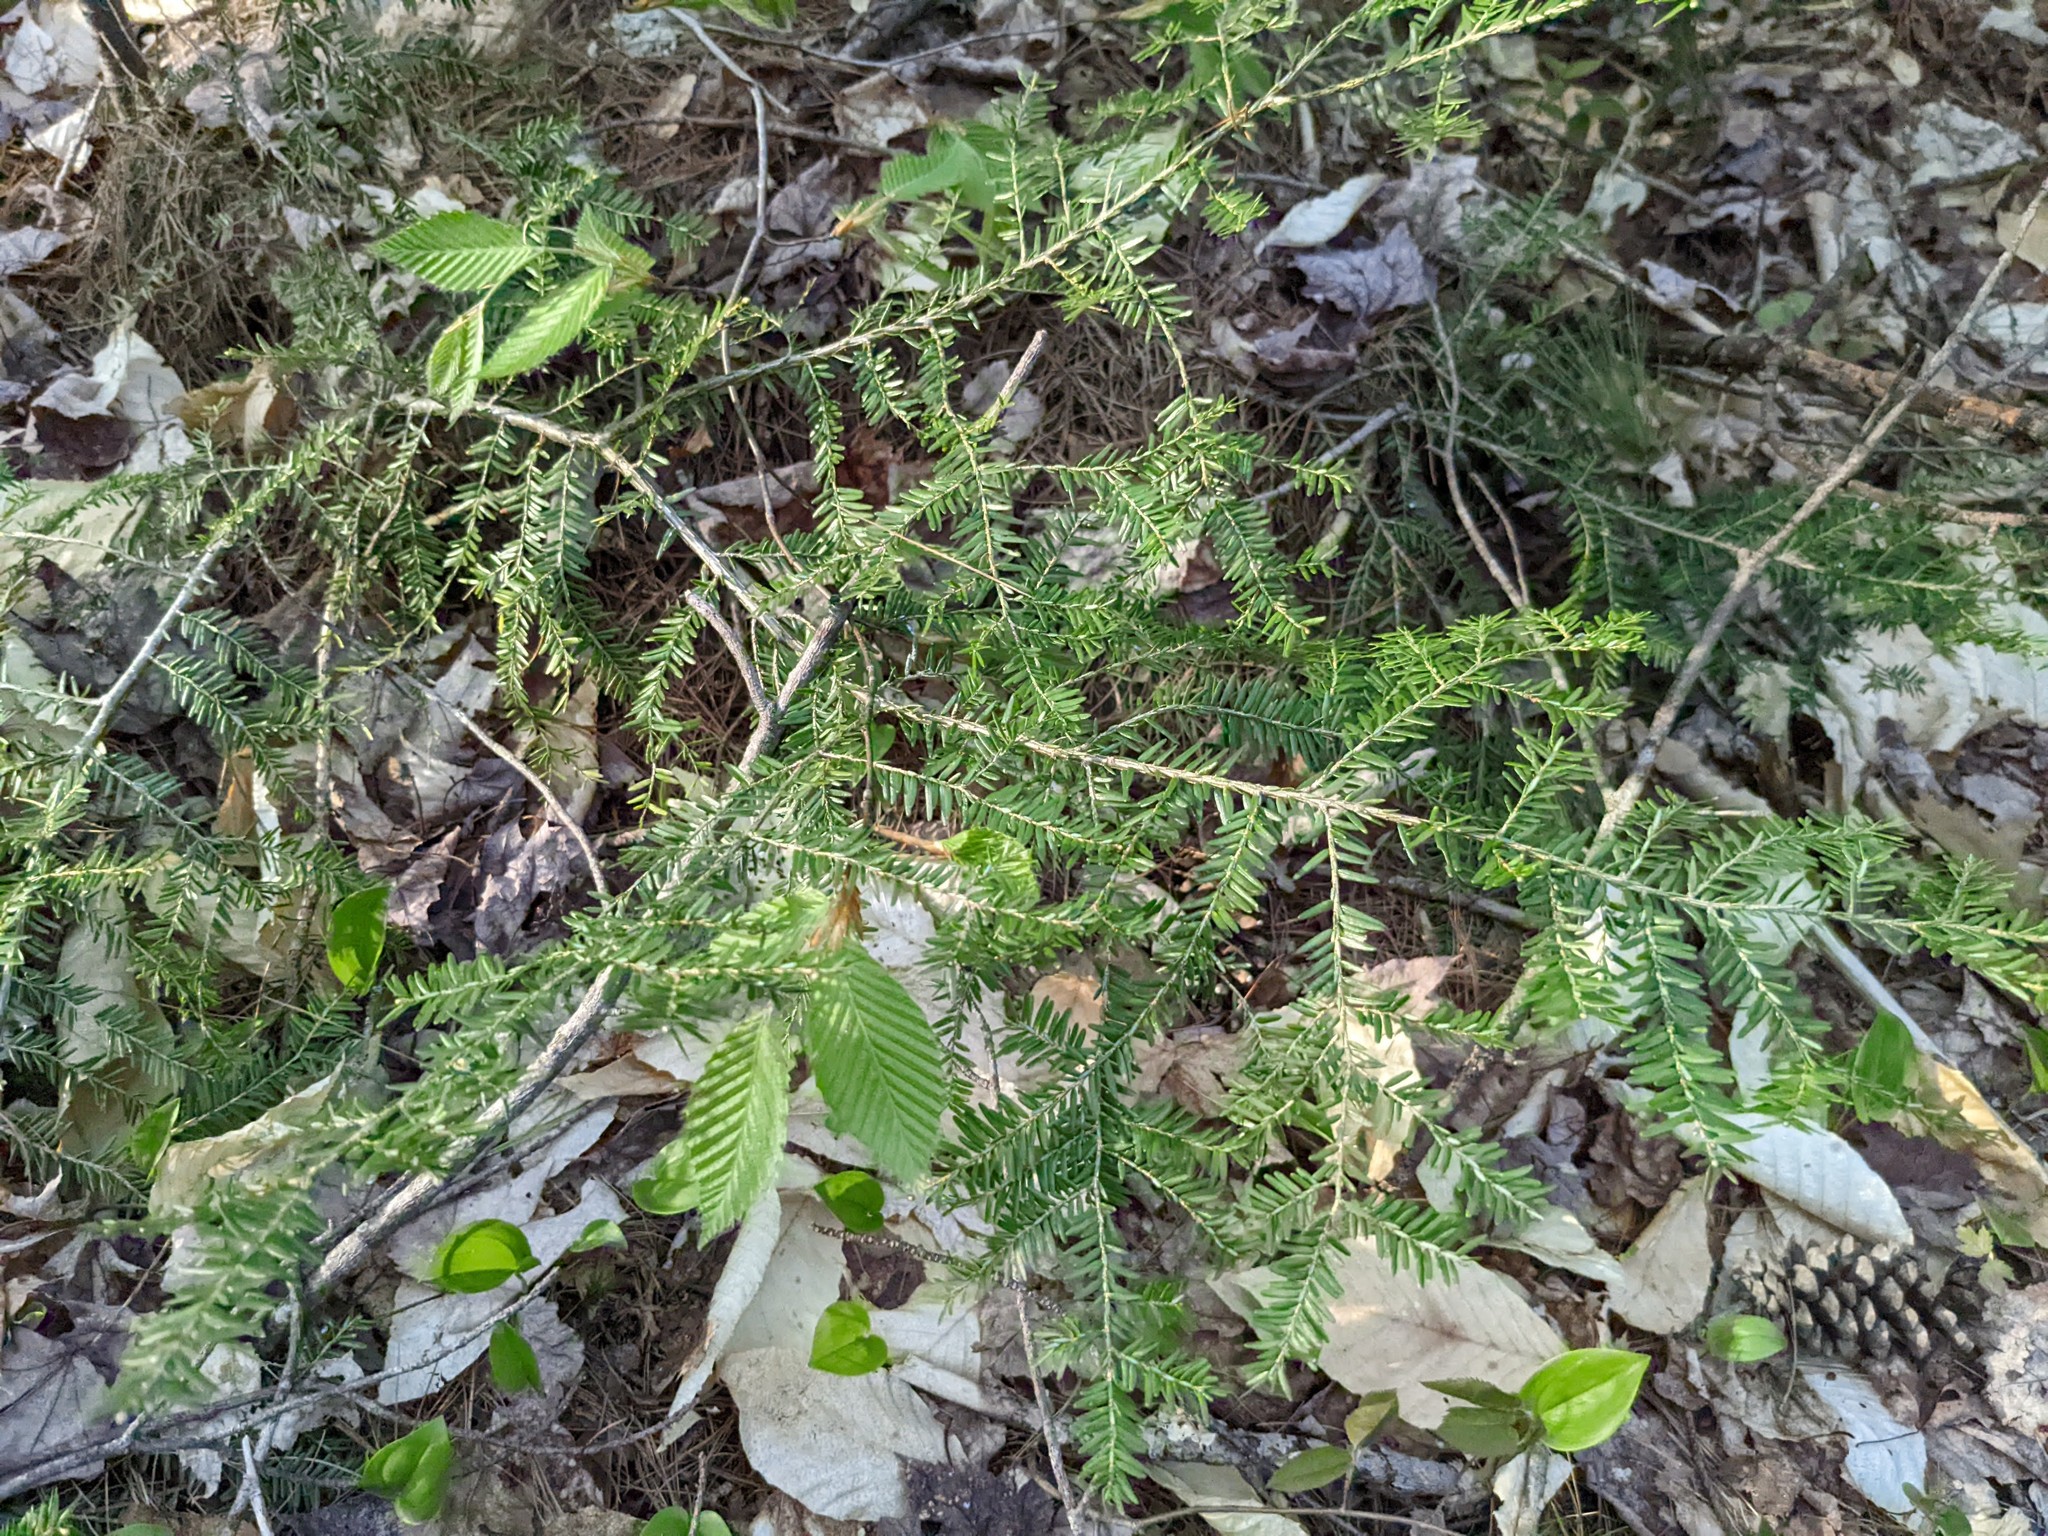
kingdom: Plantae
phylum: Tracheophyta
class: Pinopsida
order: Pinales
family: Pinaceae
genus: Tsuga
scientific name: Tsuga canadensis
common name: Eastern hemlock
